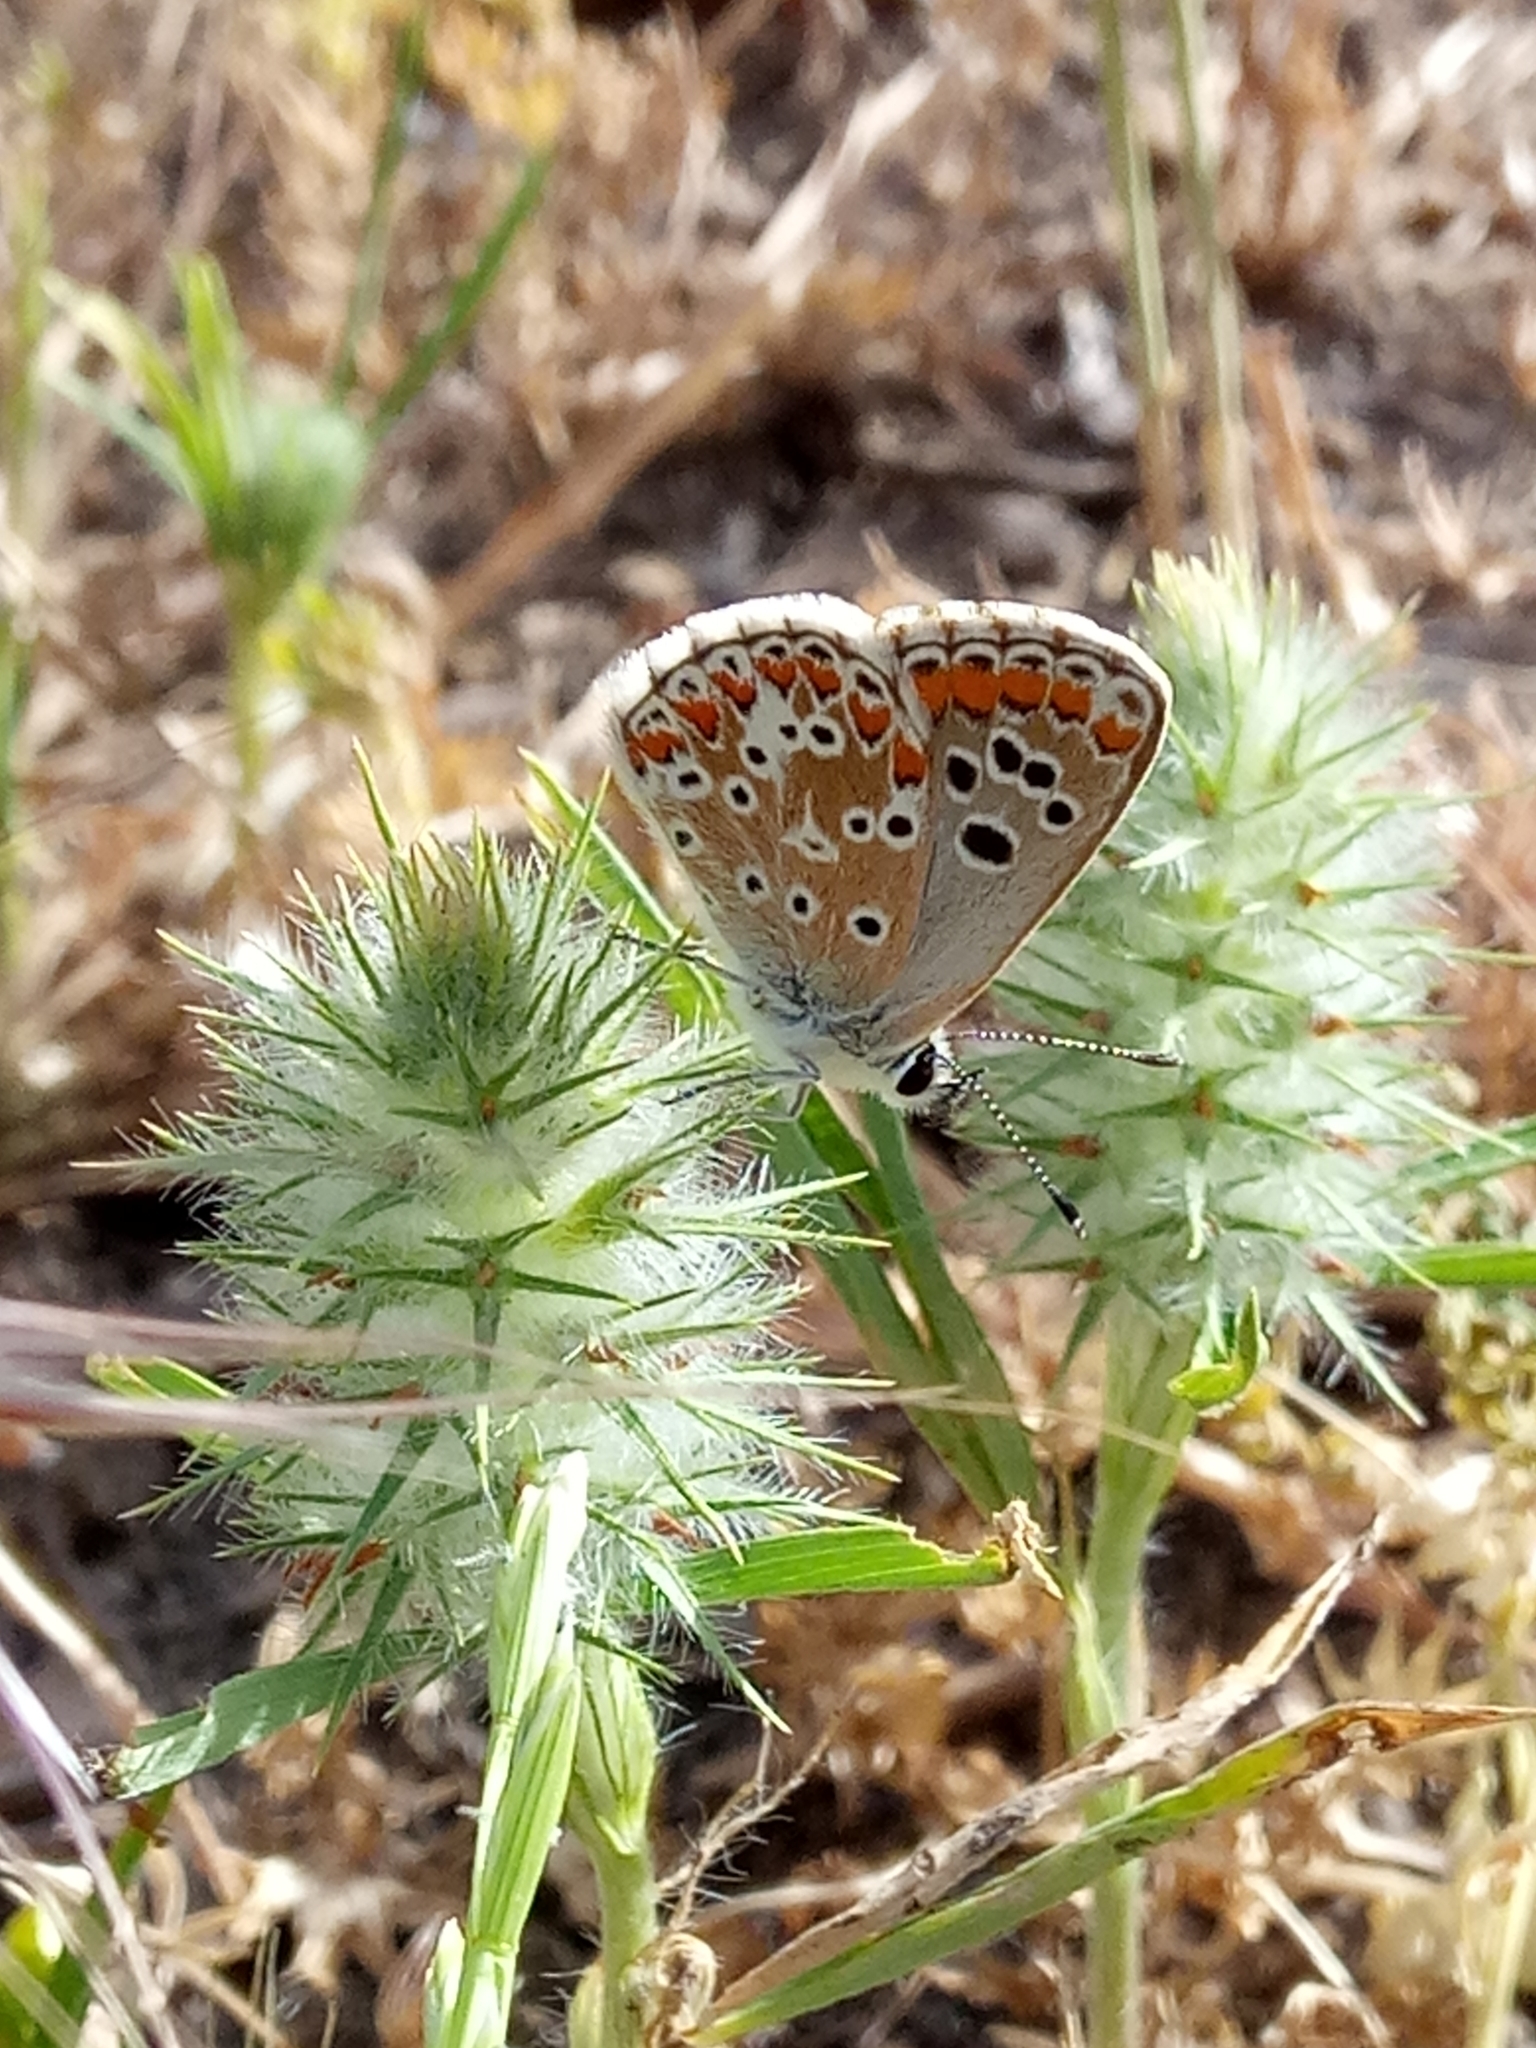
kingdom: Animalia
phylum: Arthropoda
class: Insecta
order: Lepidoptera
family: Lycaenidae
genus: Aricia
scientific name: Aricia cramera
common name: Eschscholtz´s brown  argus
